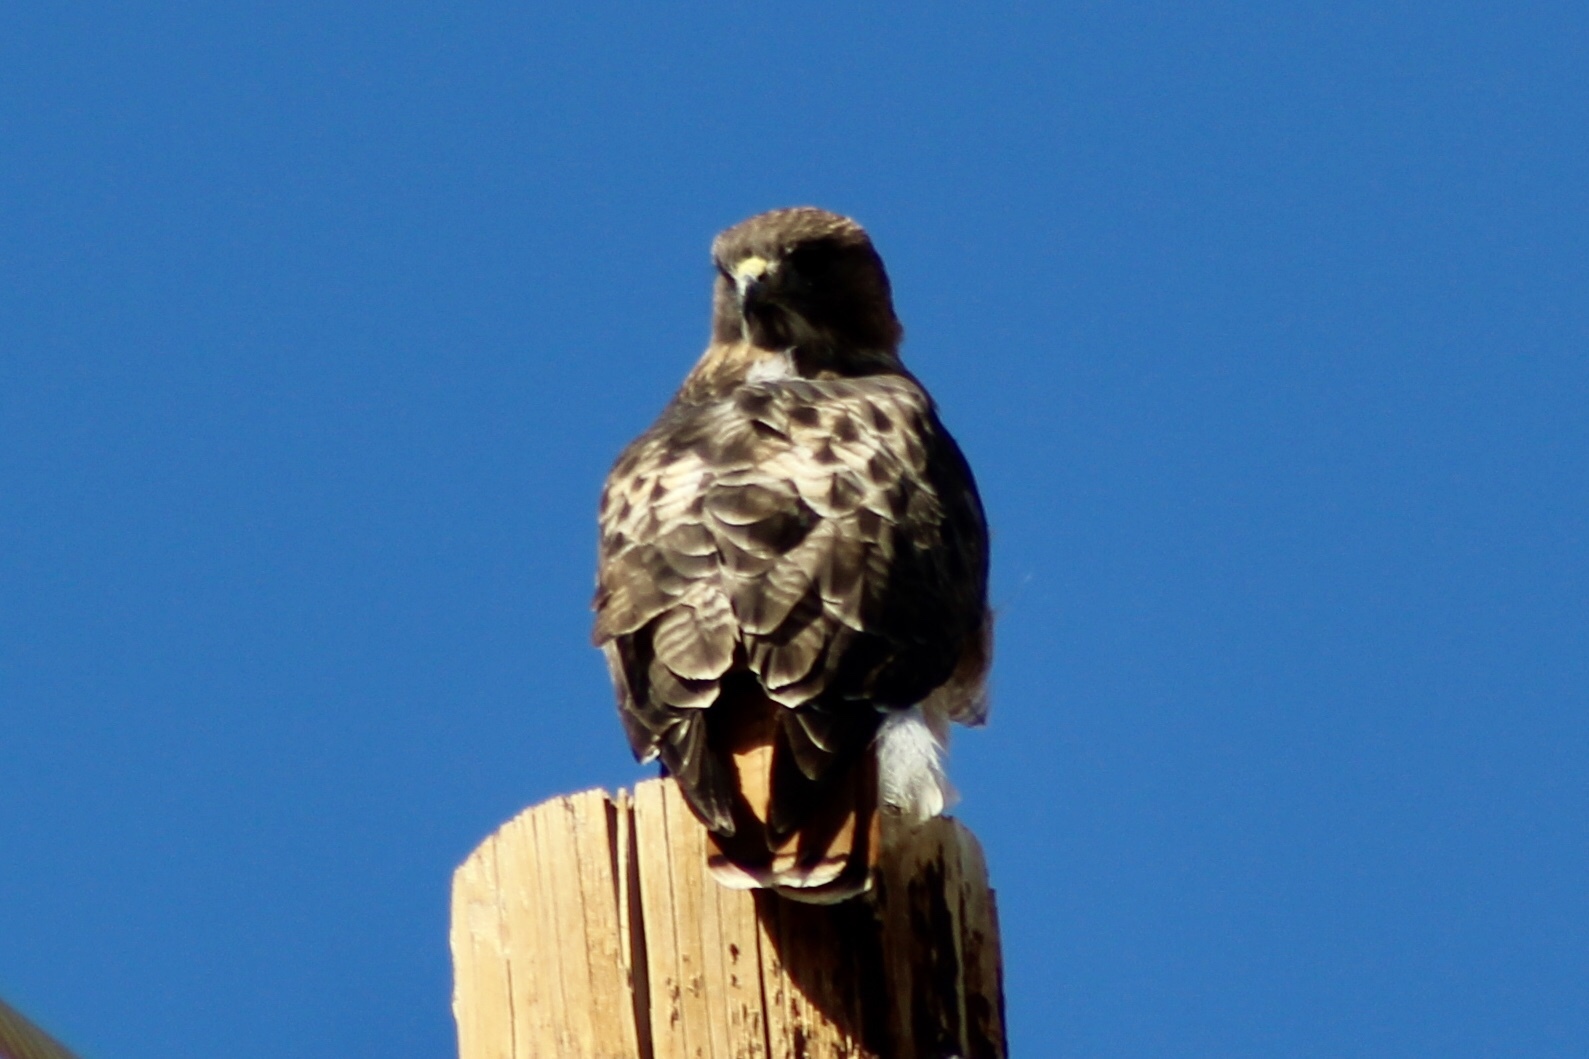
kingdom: Animalia
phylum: Chordata
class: Aves
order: Accipitriformes
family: Accipitridae
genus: Buteo
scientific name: Buteo jamaicensis
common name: Red-tailed hawk
